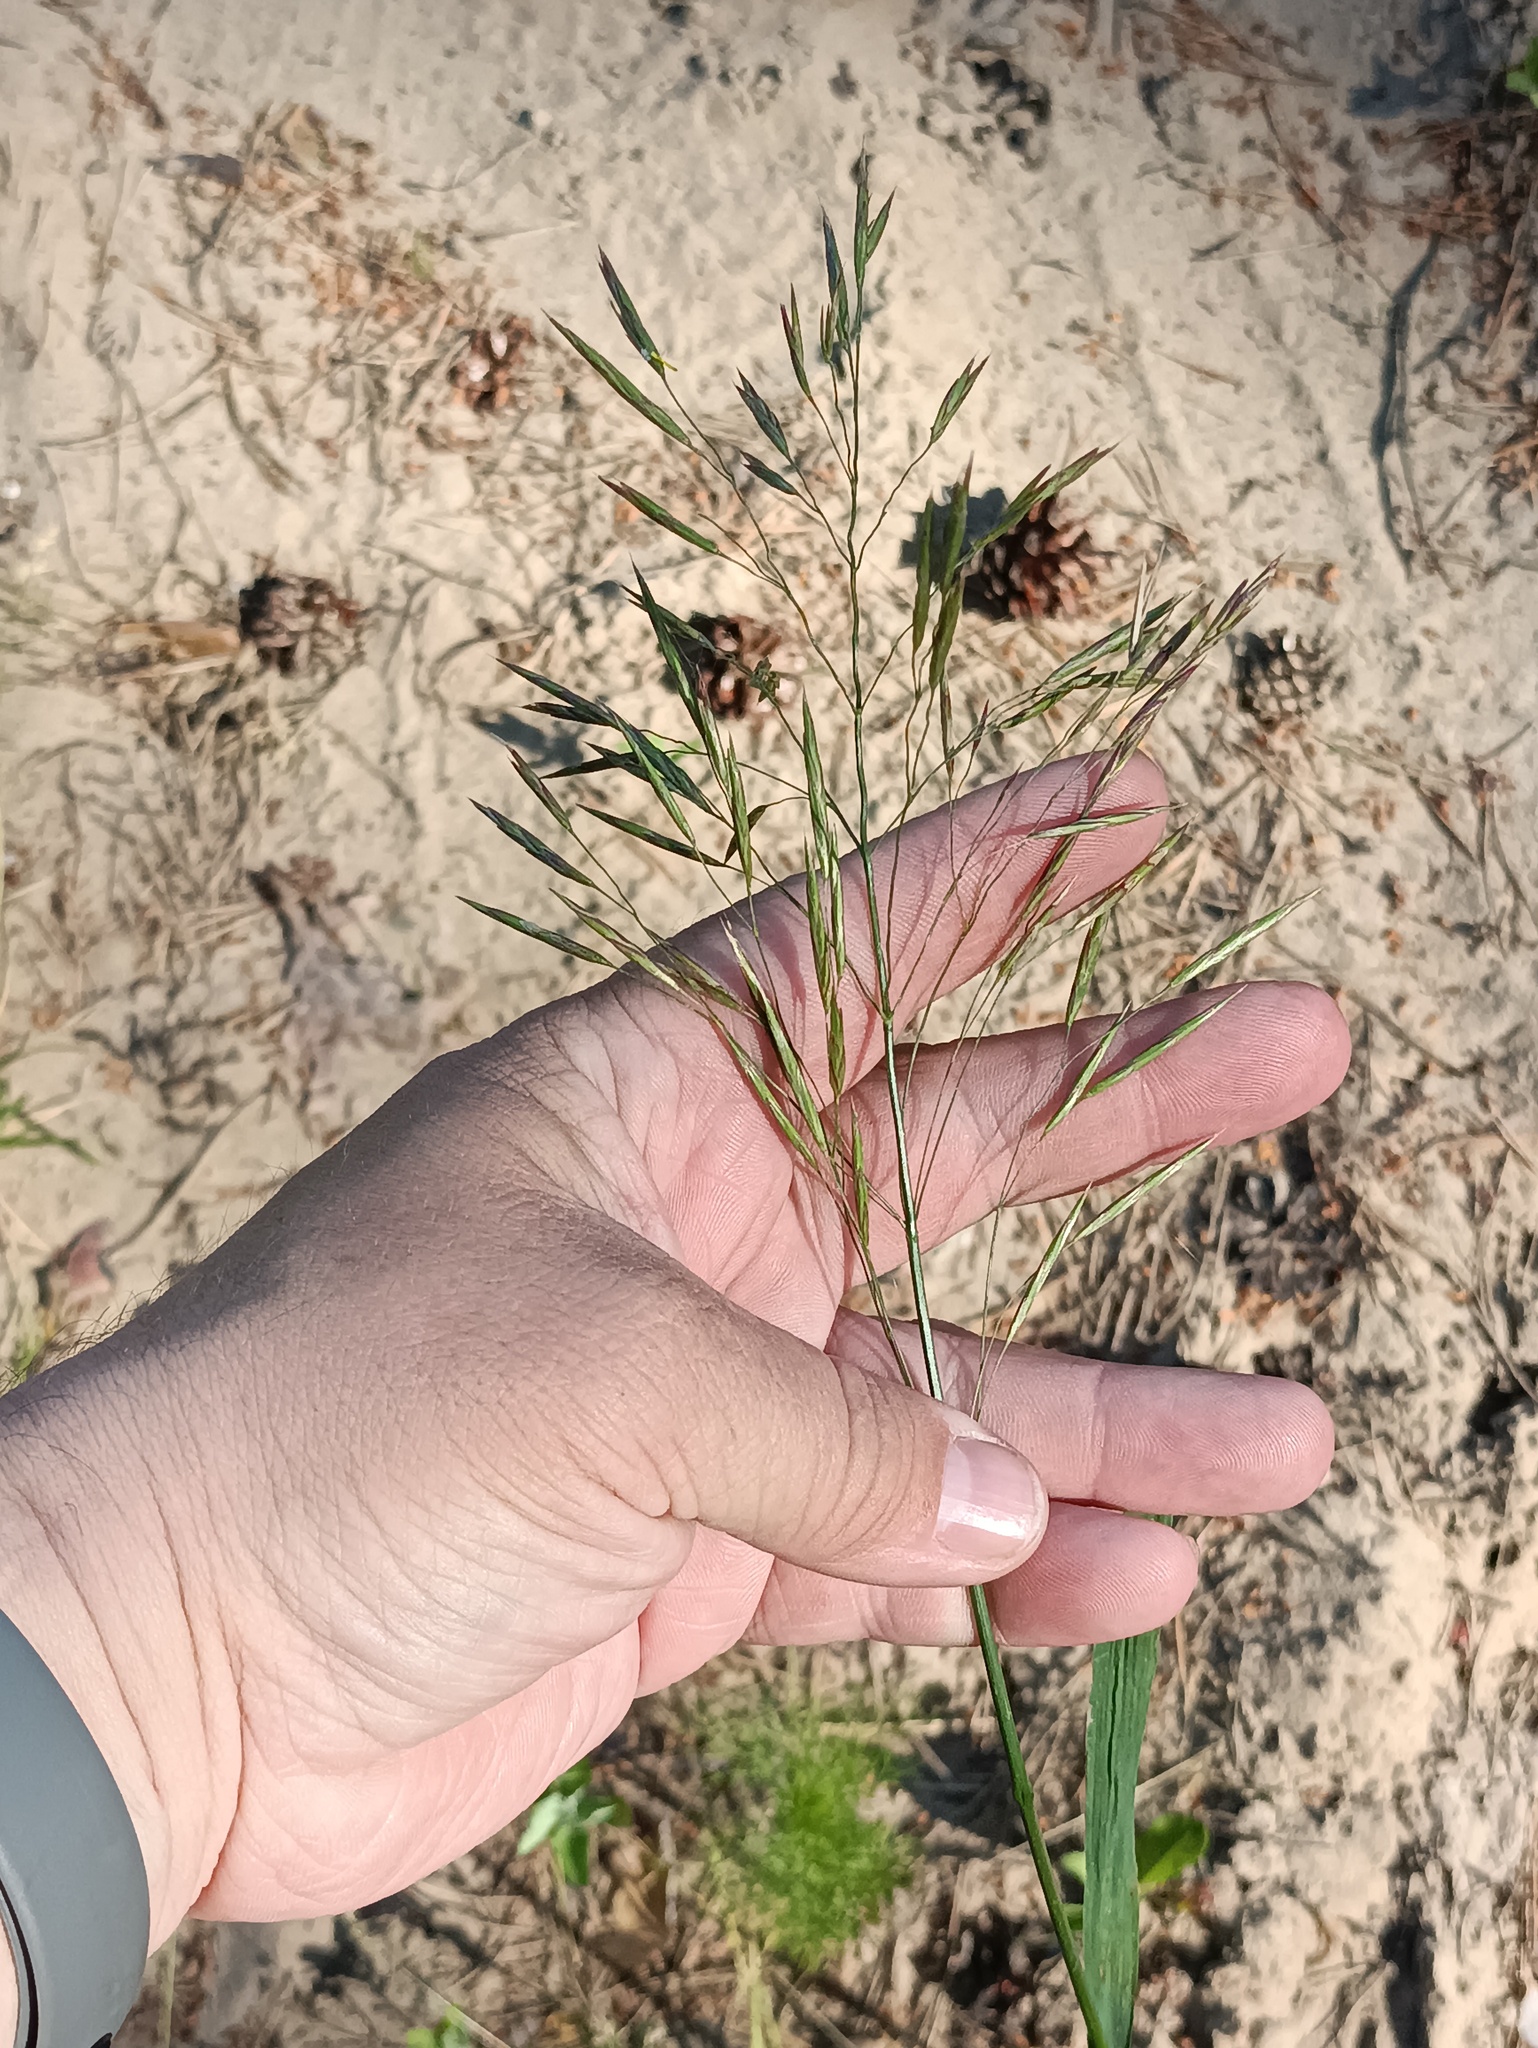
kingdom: Plantae
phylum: Tracheophyta
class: Liliopsida
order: Poales
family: Poaceae
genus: Agrostis
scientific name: Agrostis gigantea
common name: Black bent
